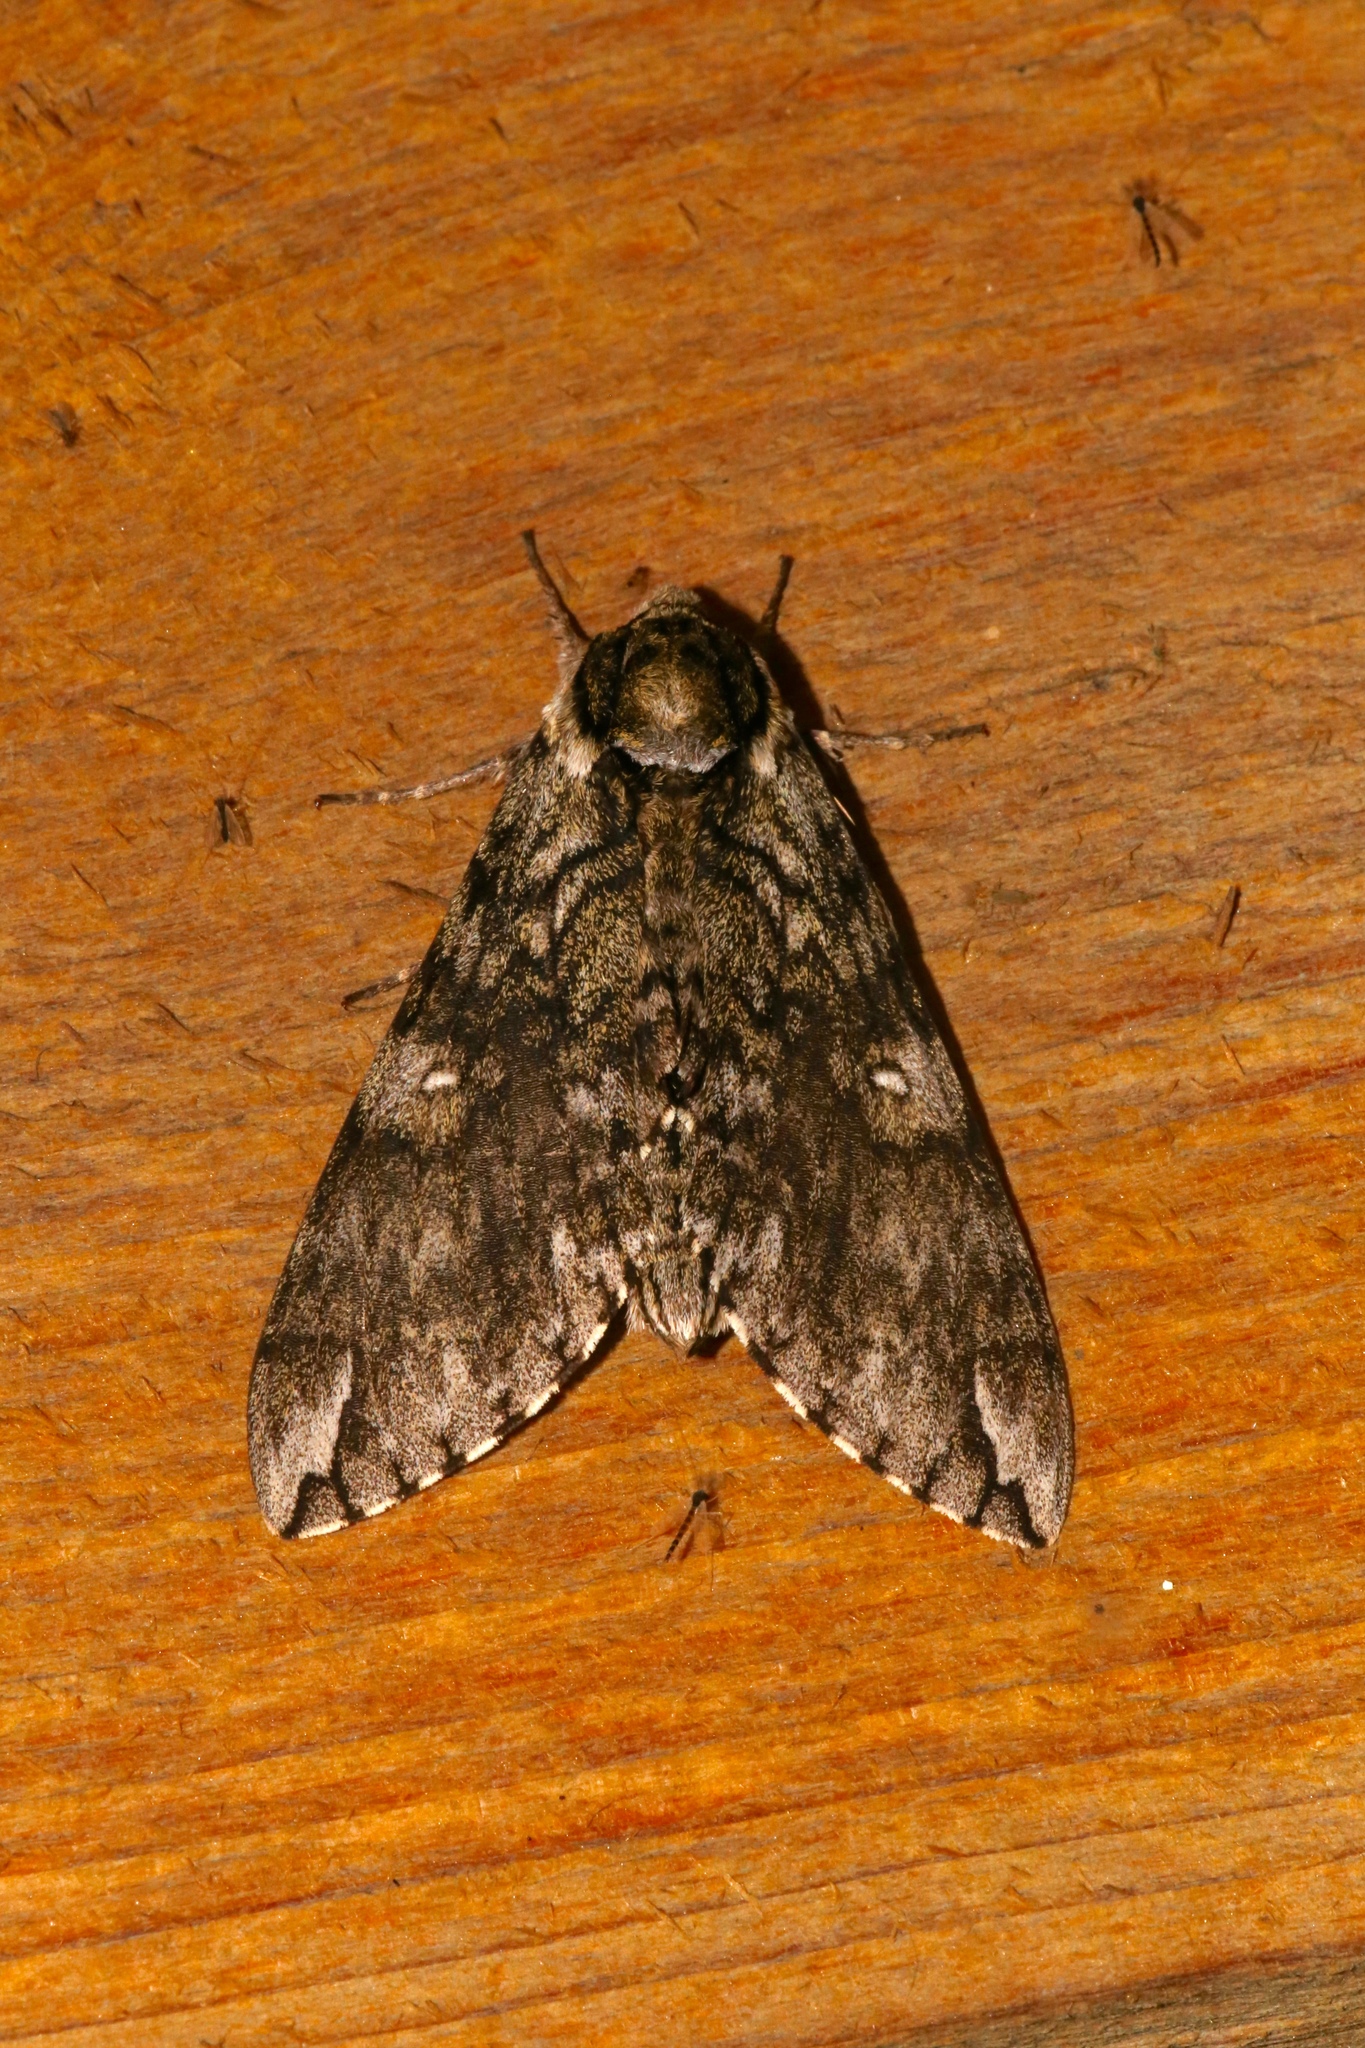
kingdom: Animalia
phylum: Arthropoda
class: Insecta
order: Lepidoptera
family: Sphingidae
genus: Ceratomia
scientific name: Ceratomia undulosa
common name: Waved sphinx
